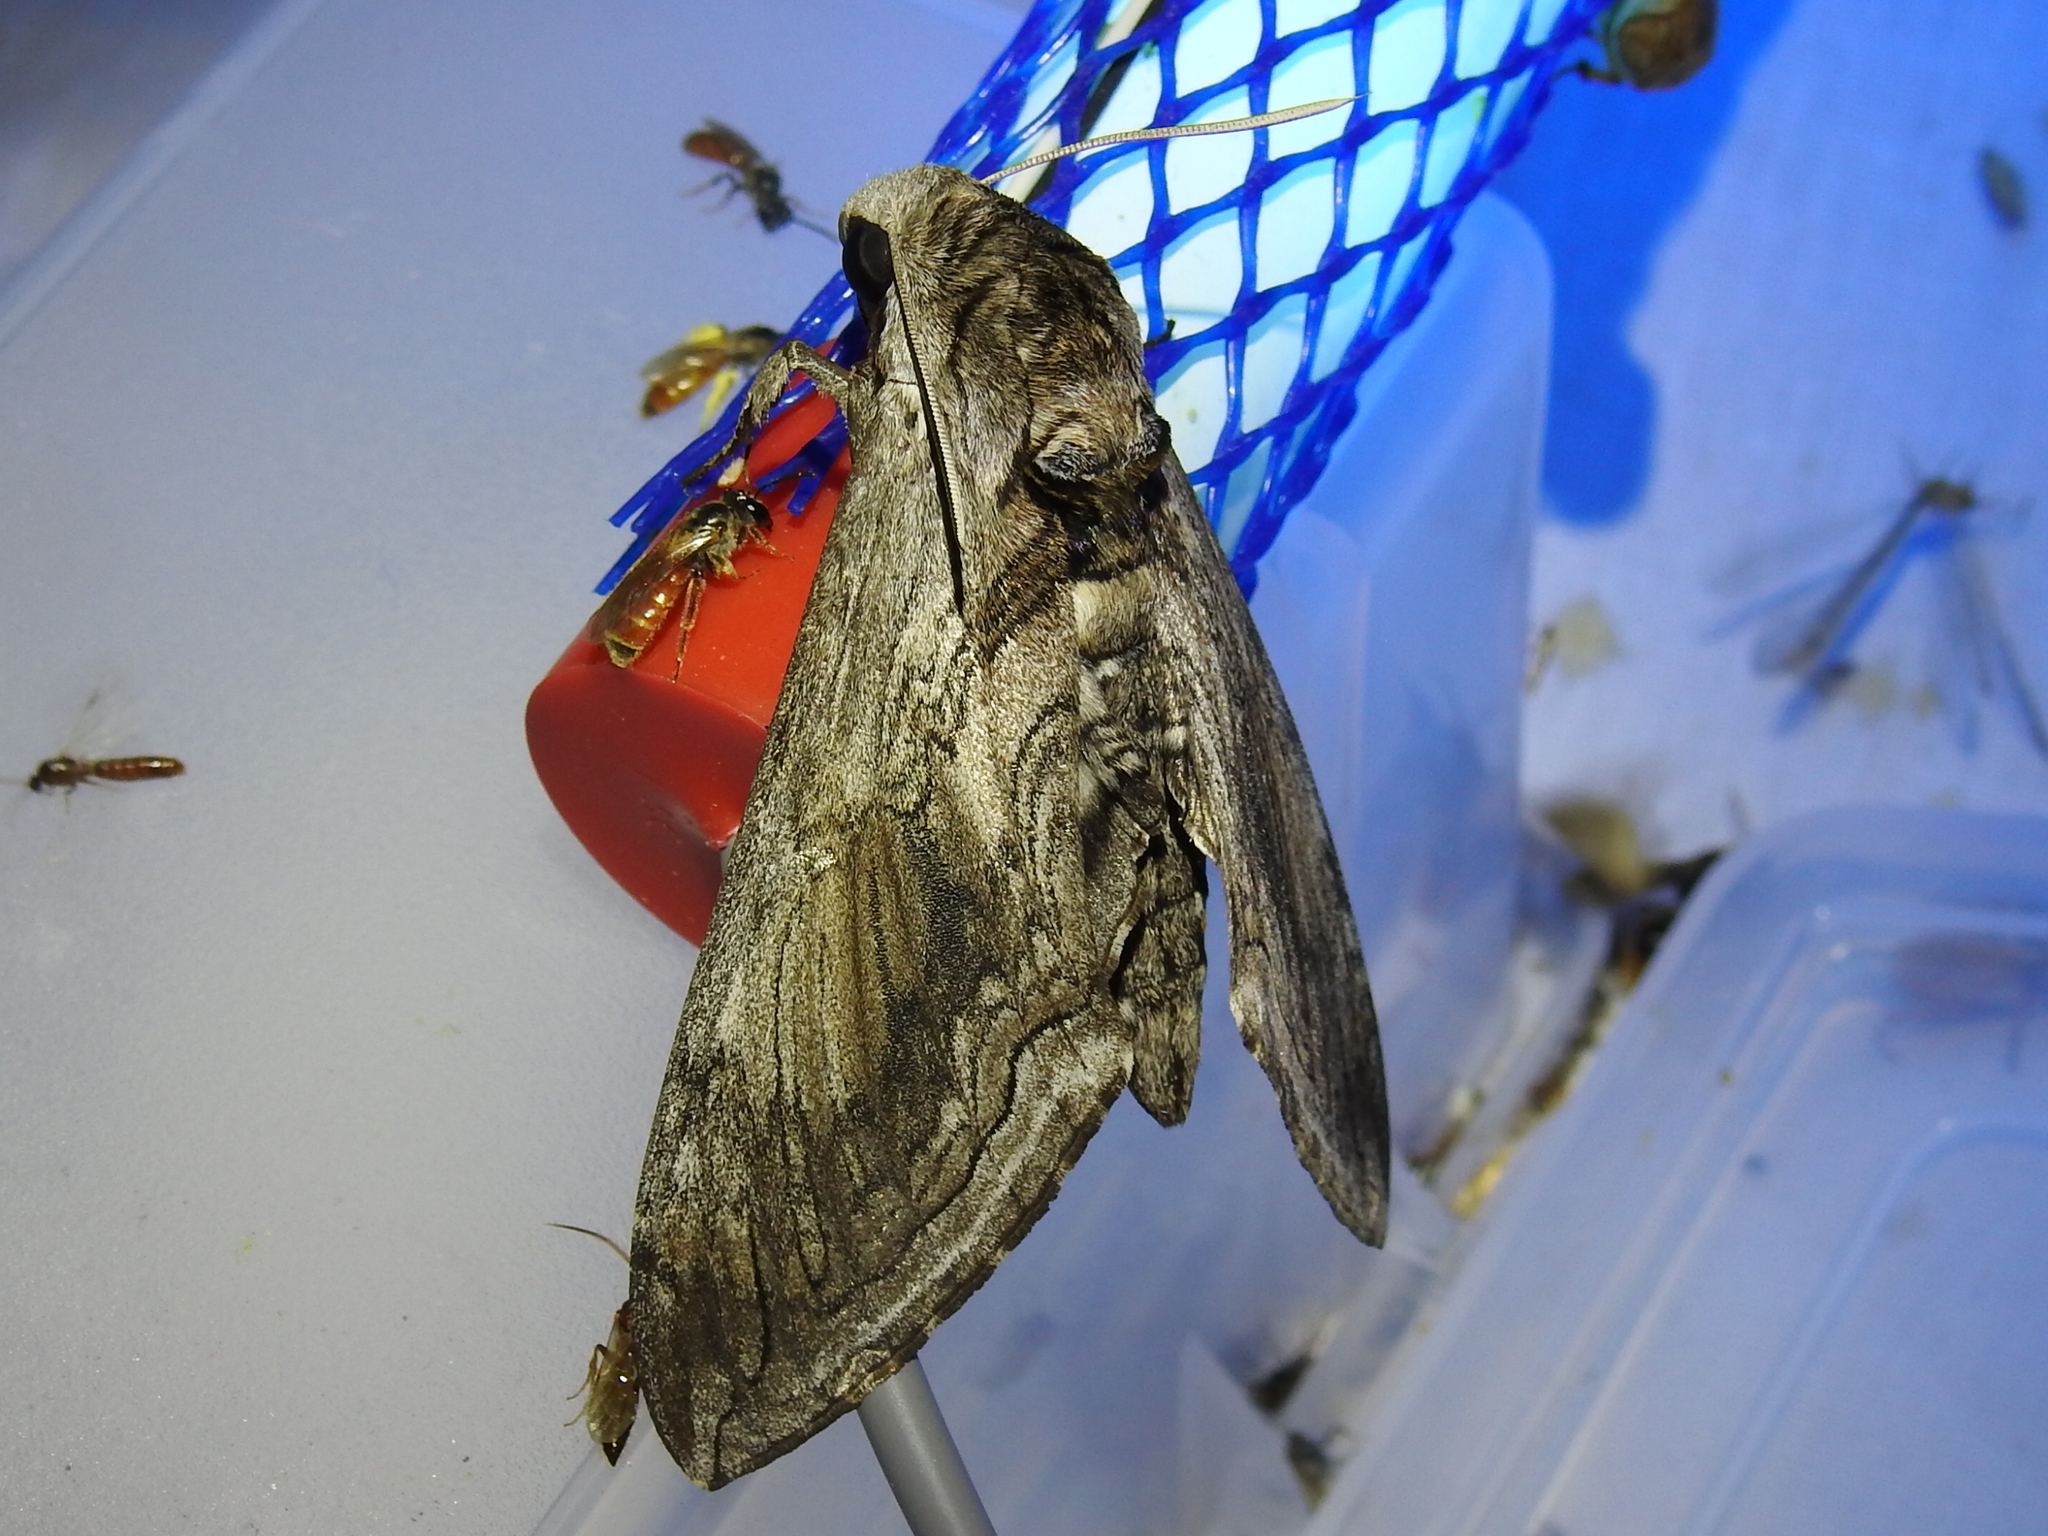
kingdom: Animalia
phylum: Arthropoda
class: Insecta
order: Lepidoptera
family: Sphingidae
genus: Manduca
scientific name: Manduca quinquemaculatus
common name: Five-spotted hawk-moth
